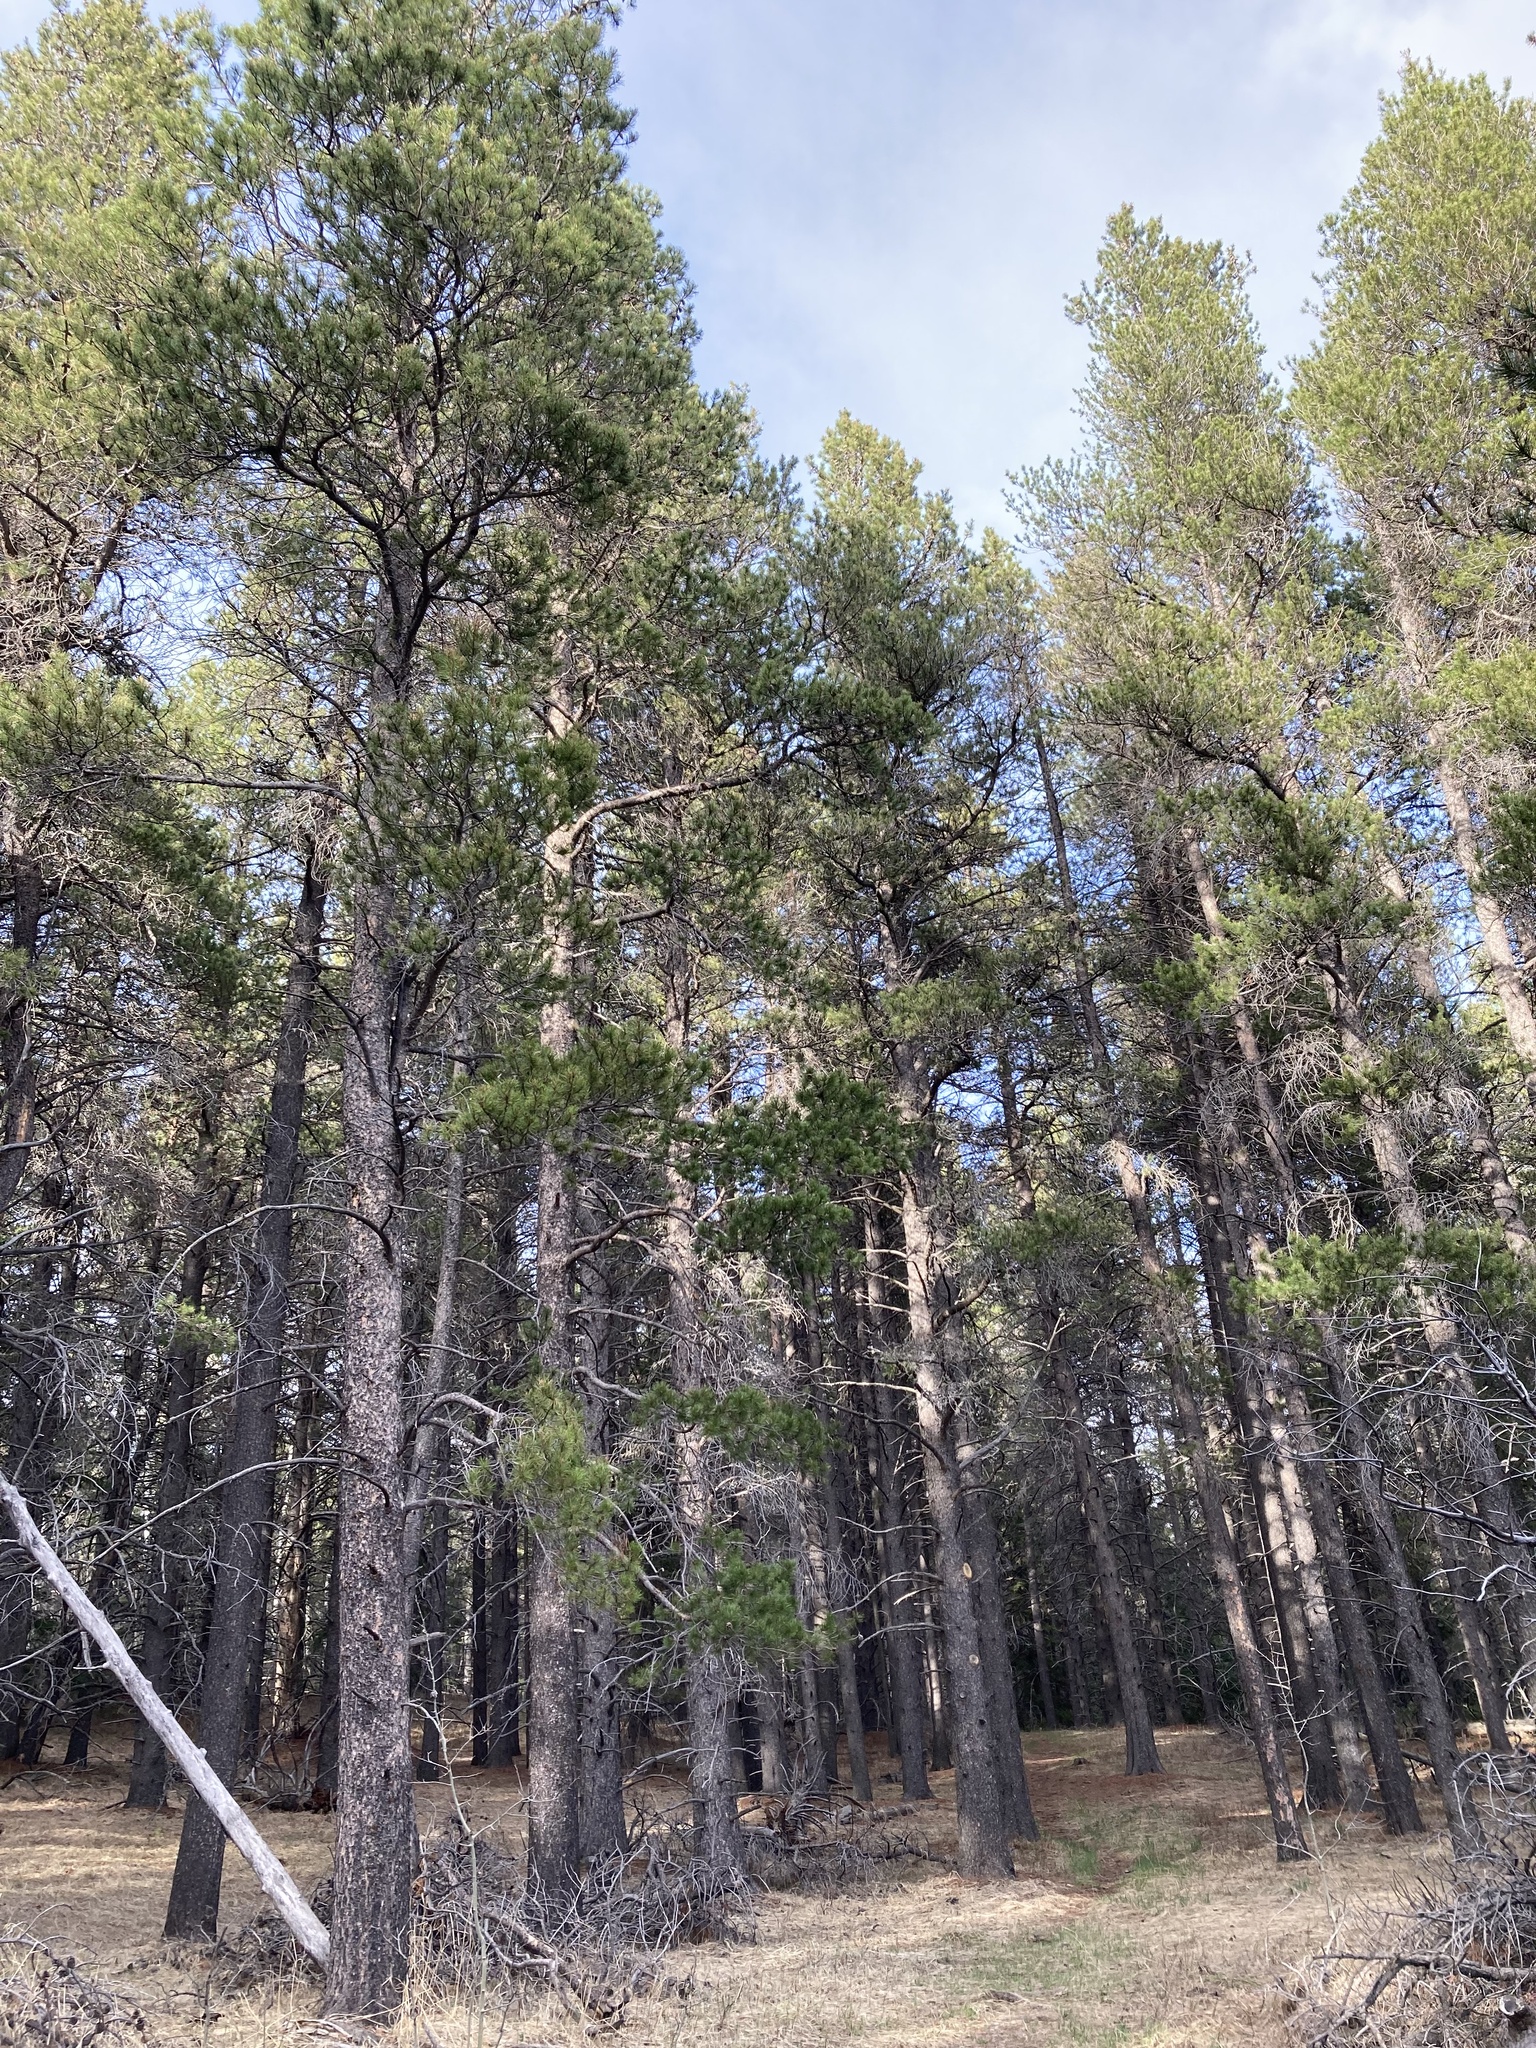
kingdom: Plantae
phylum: Tracheophyta
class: Pinopsida
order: Pinales
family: Pinaceae
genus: Pinus
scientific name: Pinus contorta
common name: Lodgepole pine
